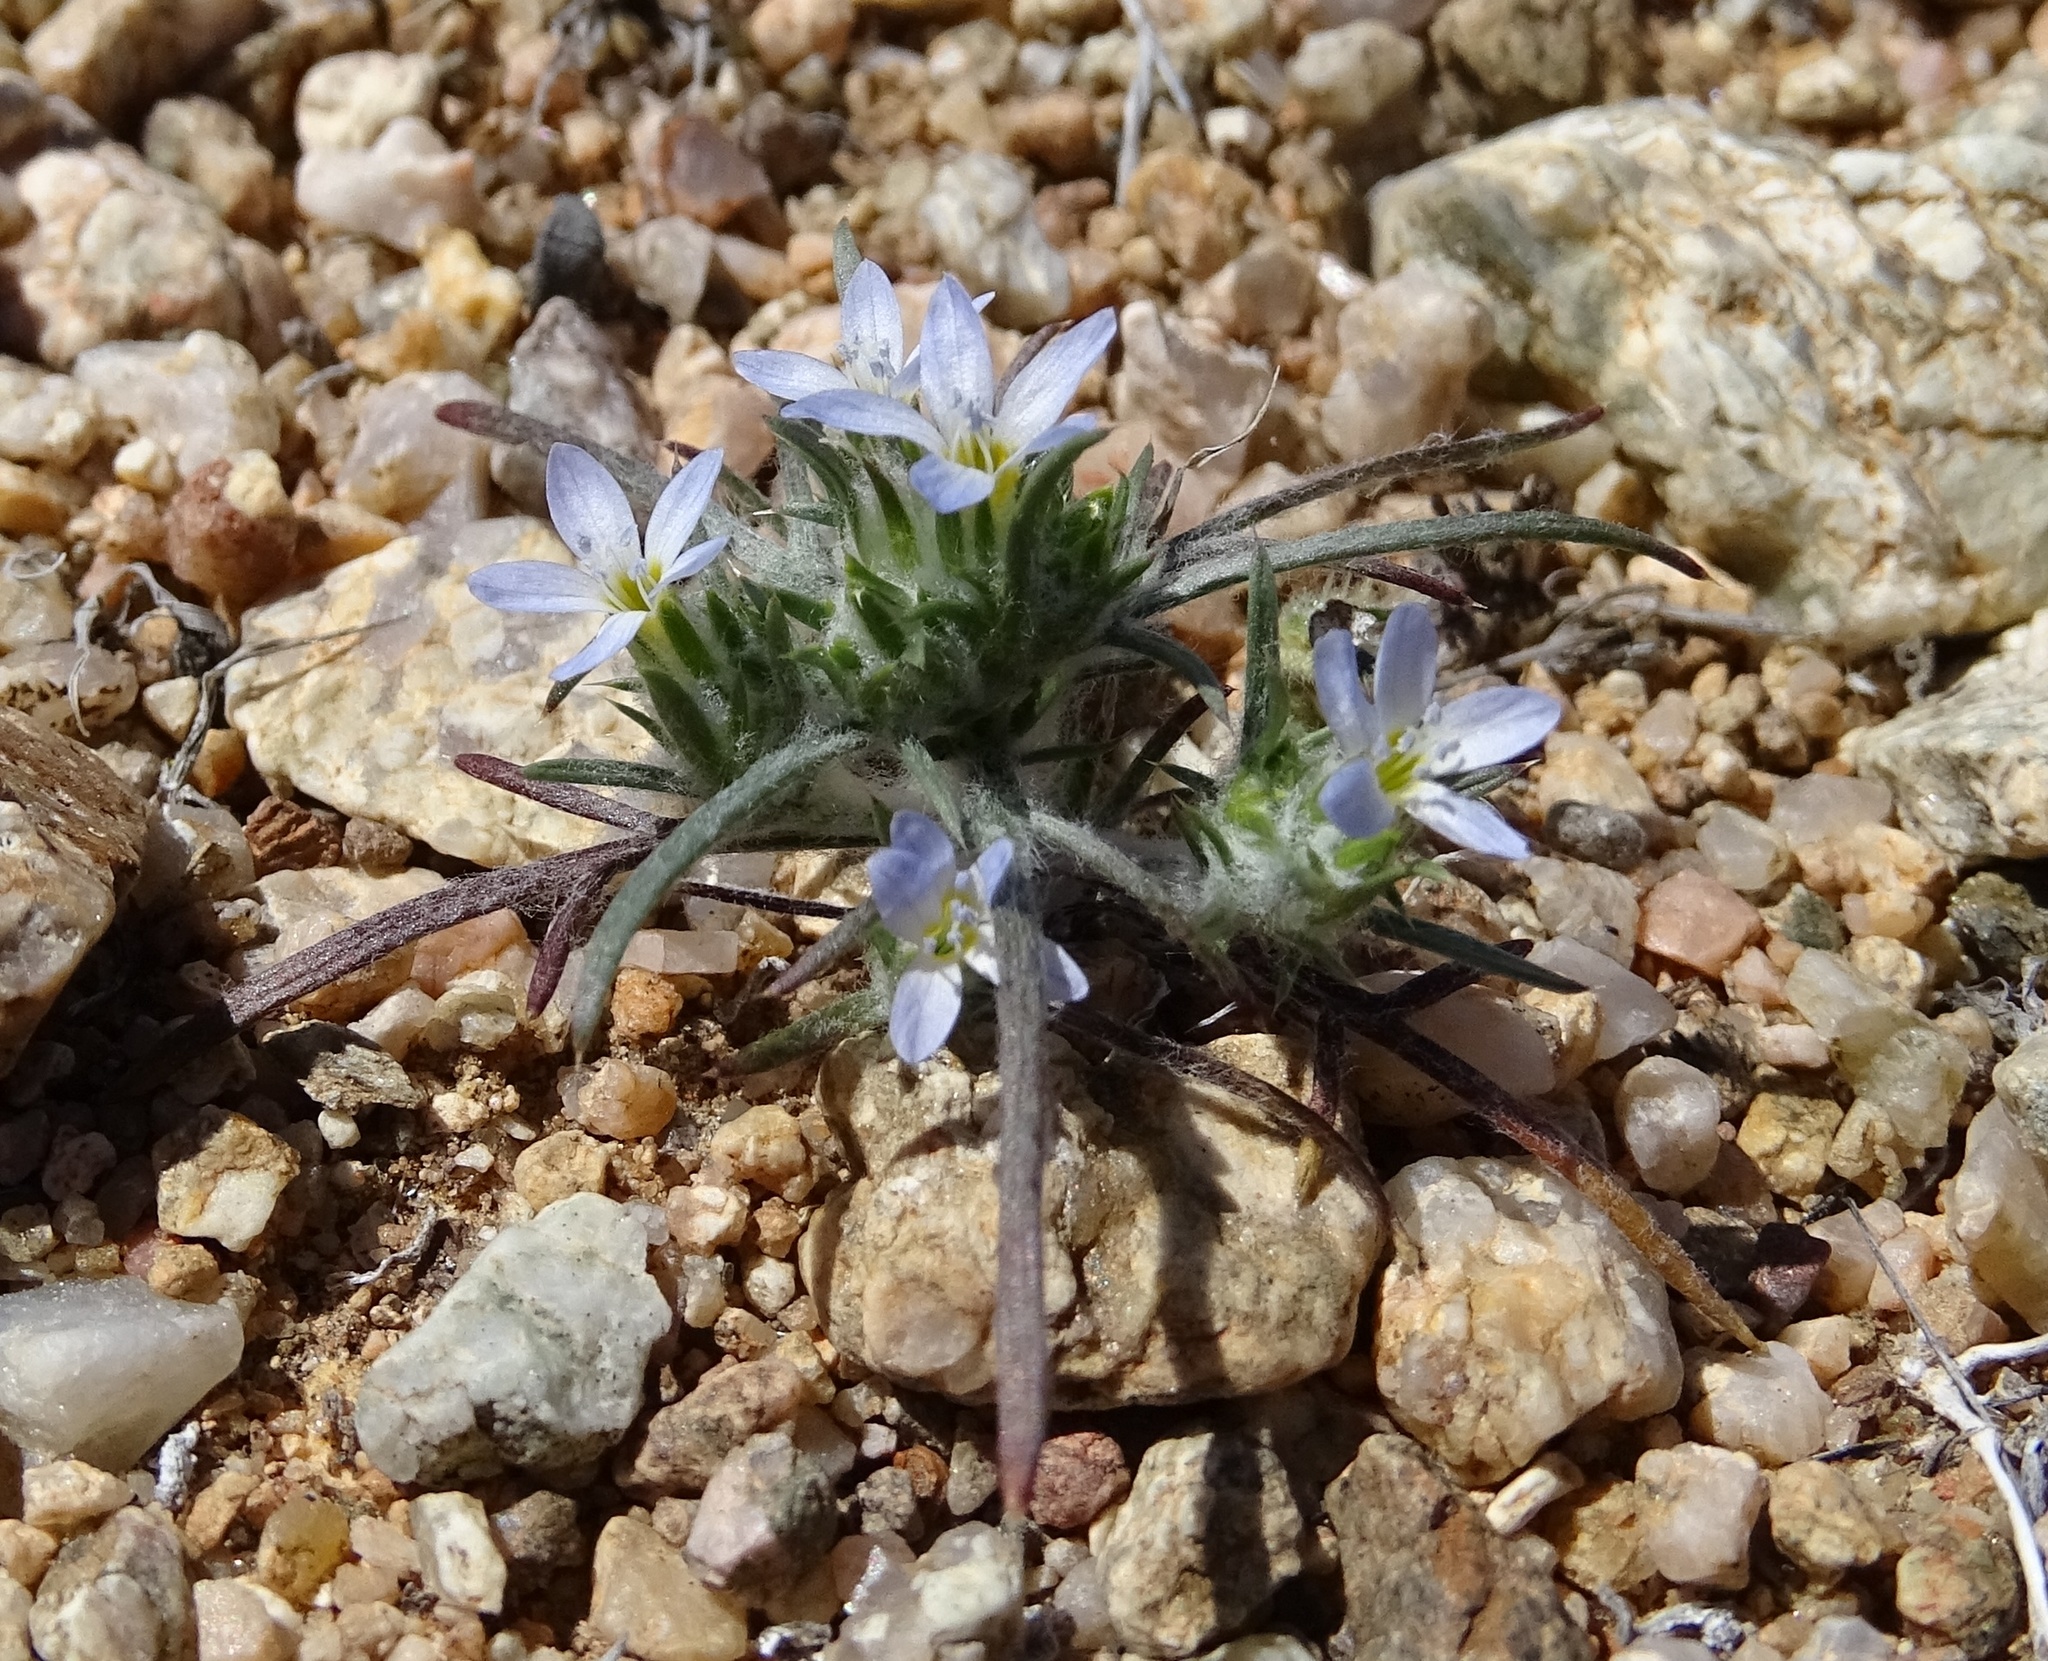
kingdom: Plantae
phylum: Tracheophyta
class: Magnoliopsida
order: Ericales
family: Polemoniaceae
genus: Eriastrum
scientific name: Eriastrum diffusum
